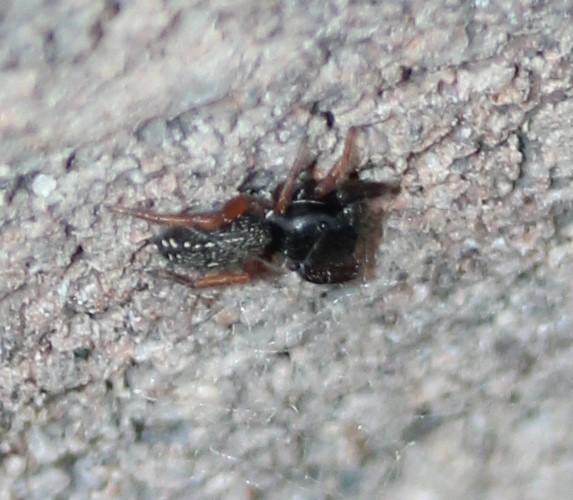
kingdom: Animalia
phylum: Arthropoda
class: Arachnida
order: Araneae
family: Salticidae
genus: Metacyrba
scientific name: Metacyrba taeniola
